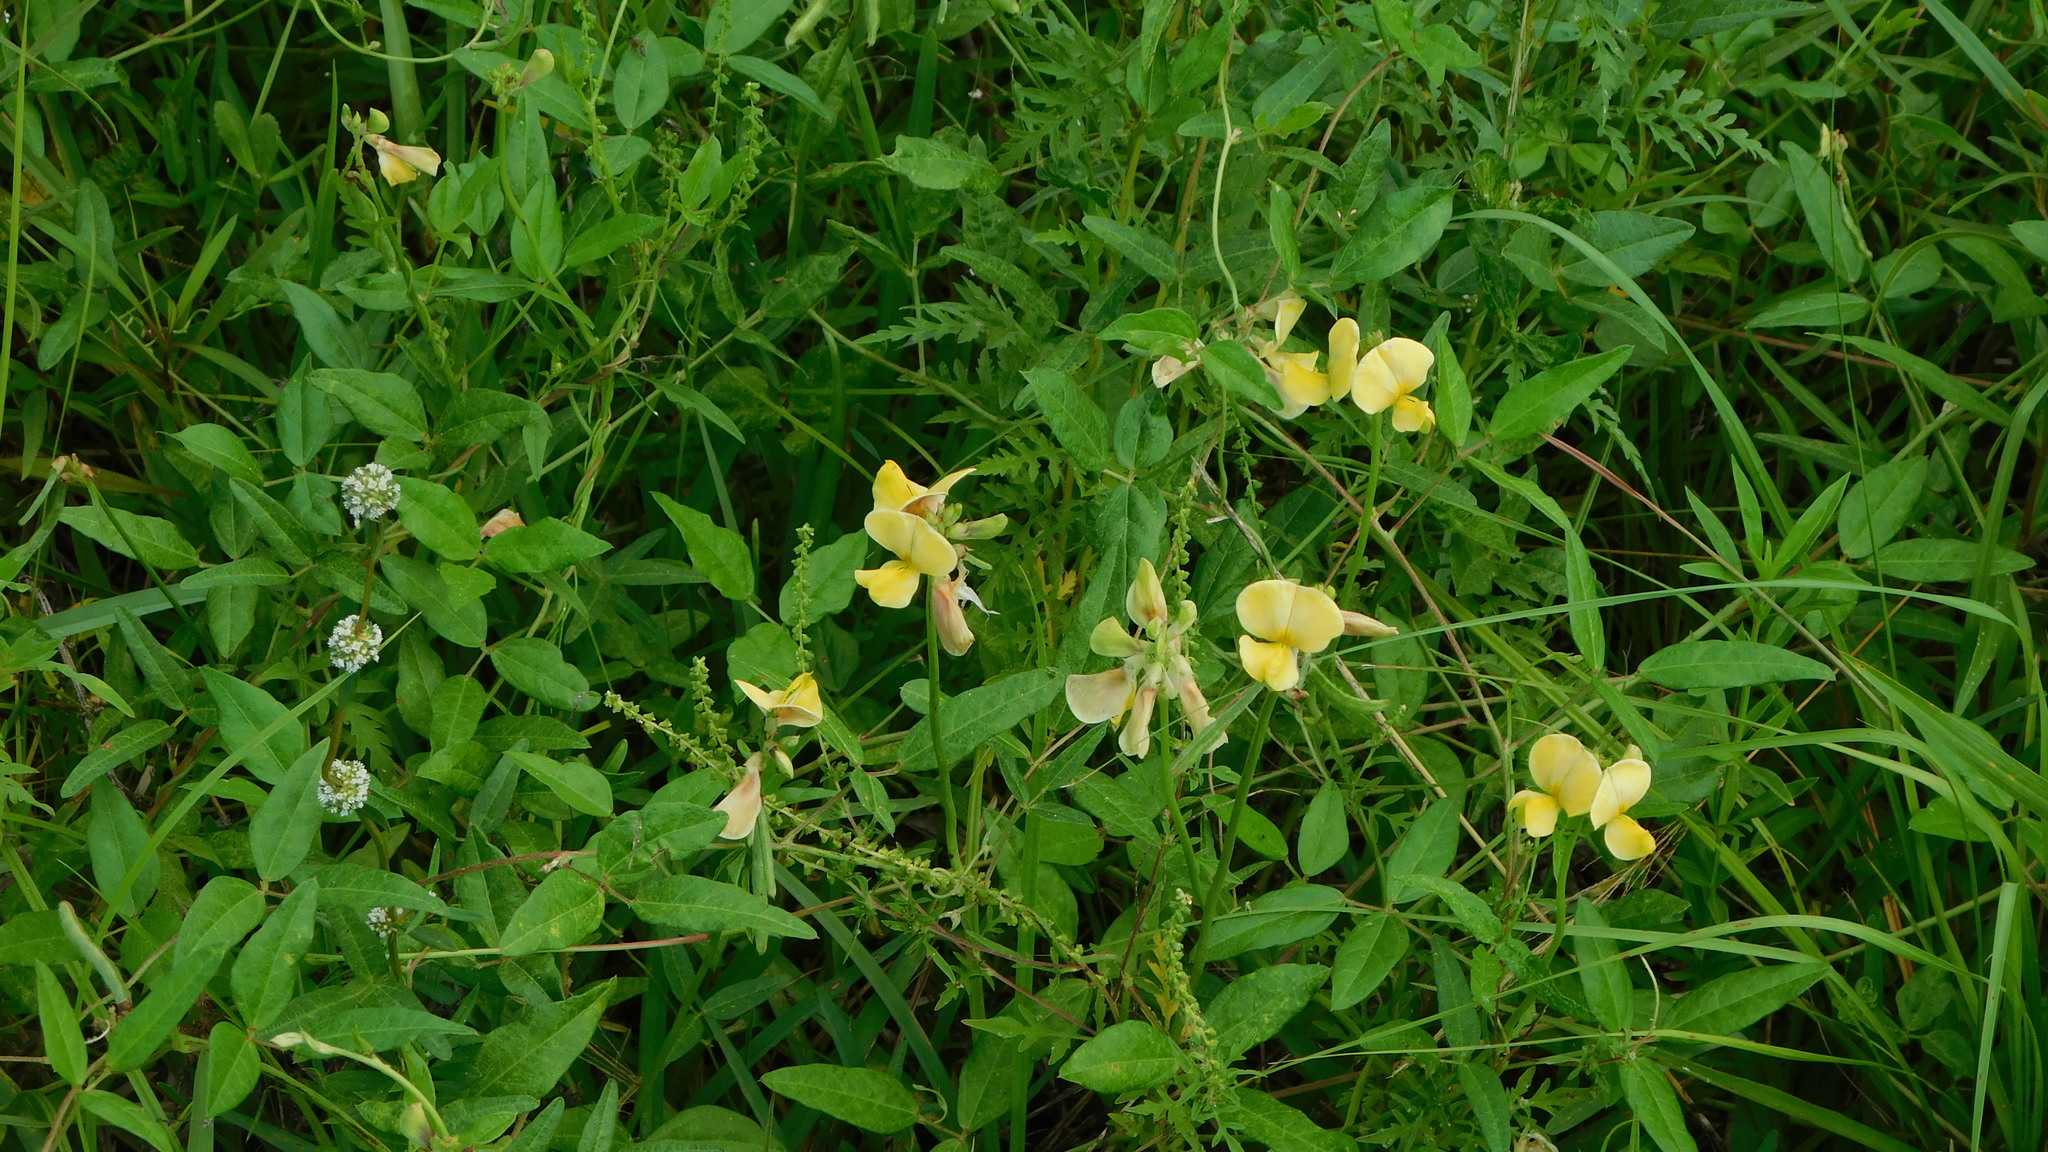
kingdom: Plantae
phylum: Tracheophyta
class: Magnoliopsida
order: Fabales
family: Fabaceae
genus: Vigna
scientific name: Vigna luteola
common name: Hairypod cowpea
